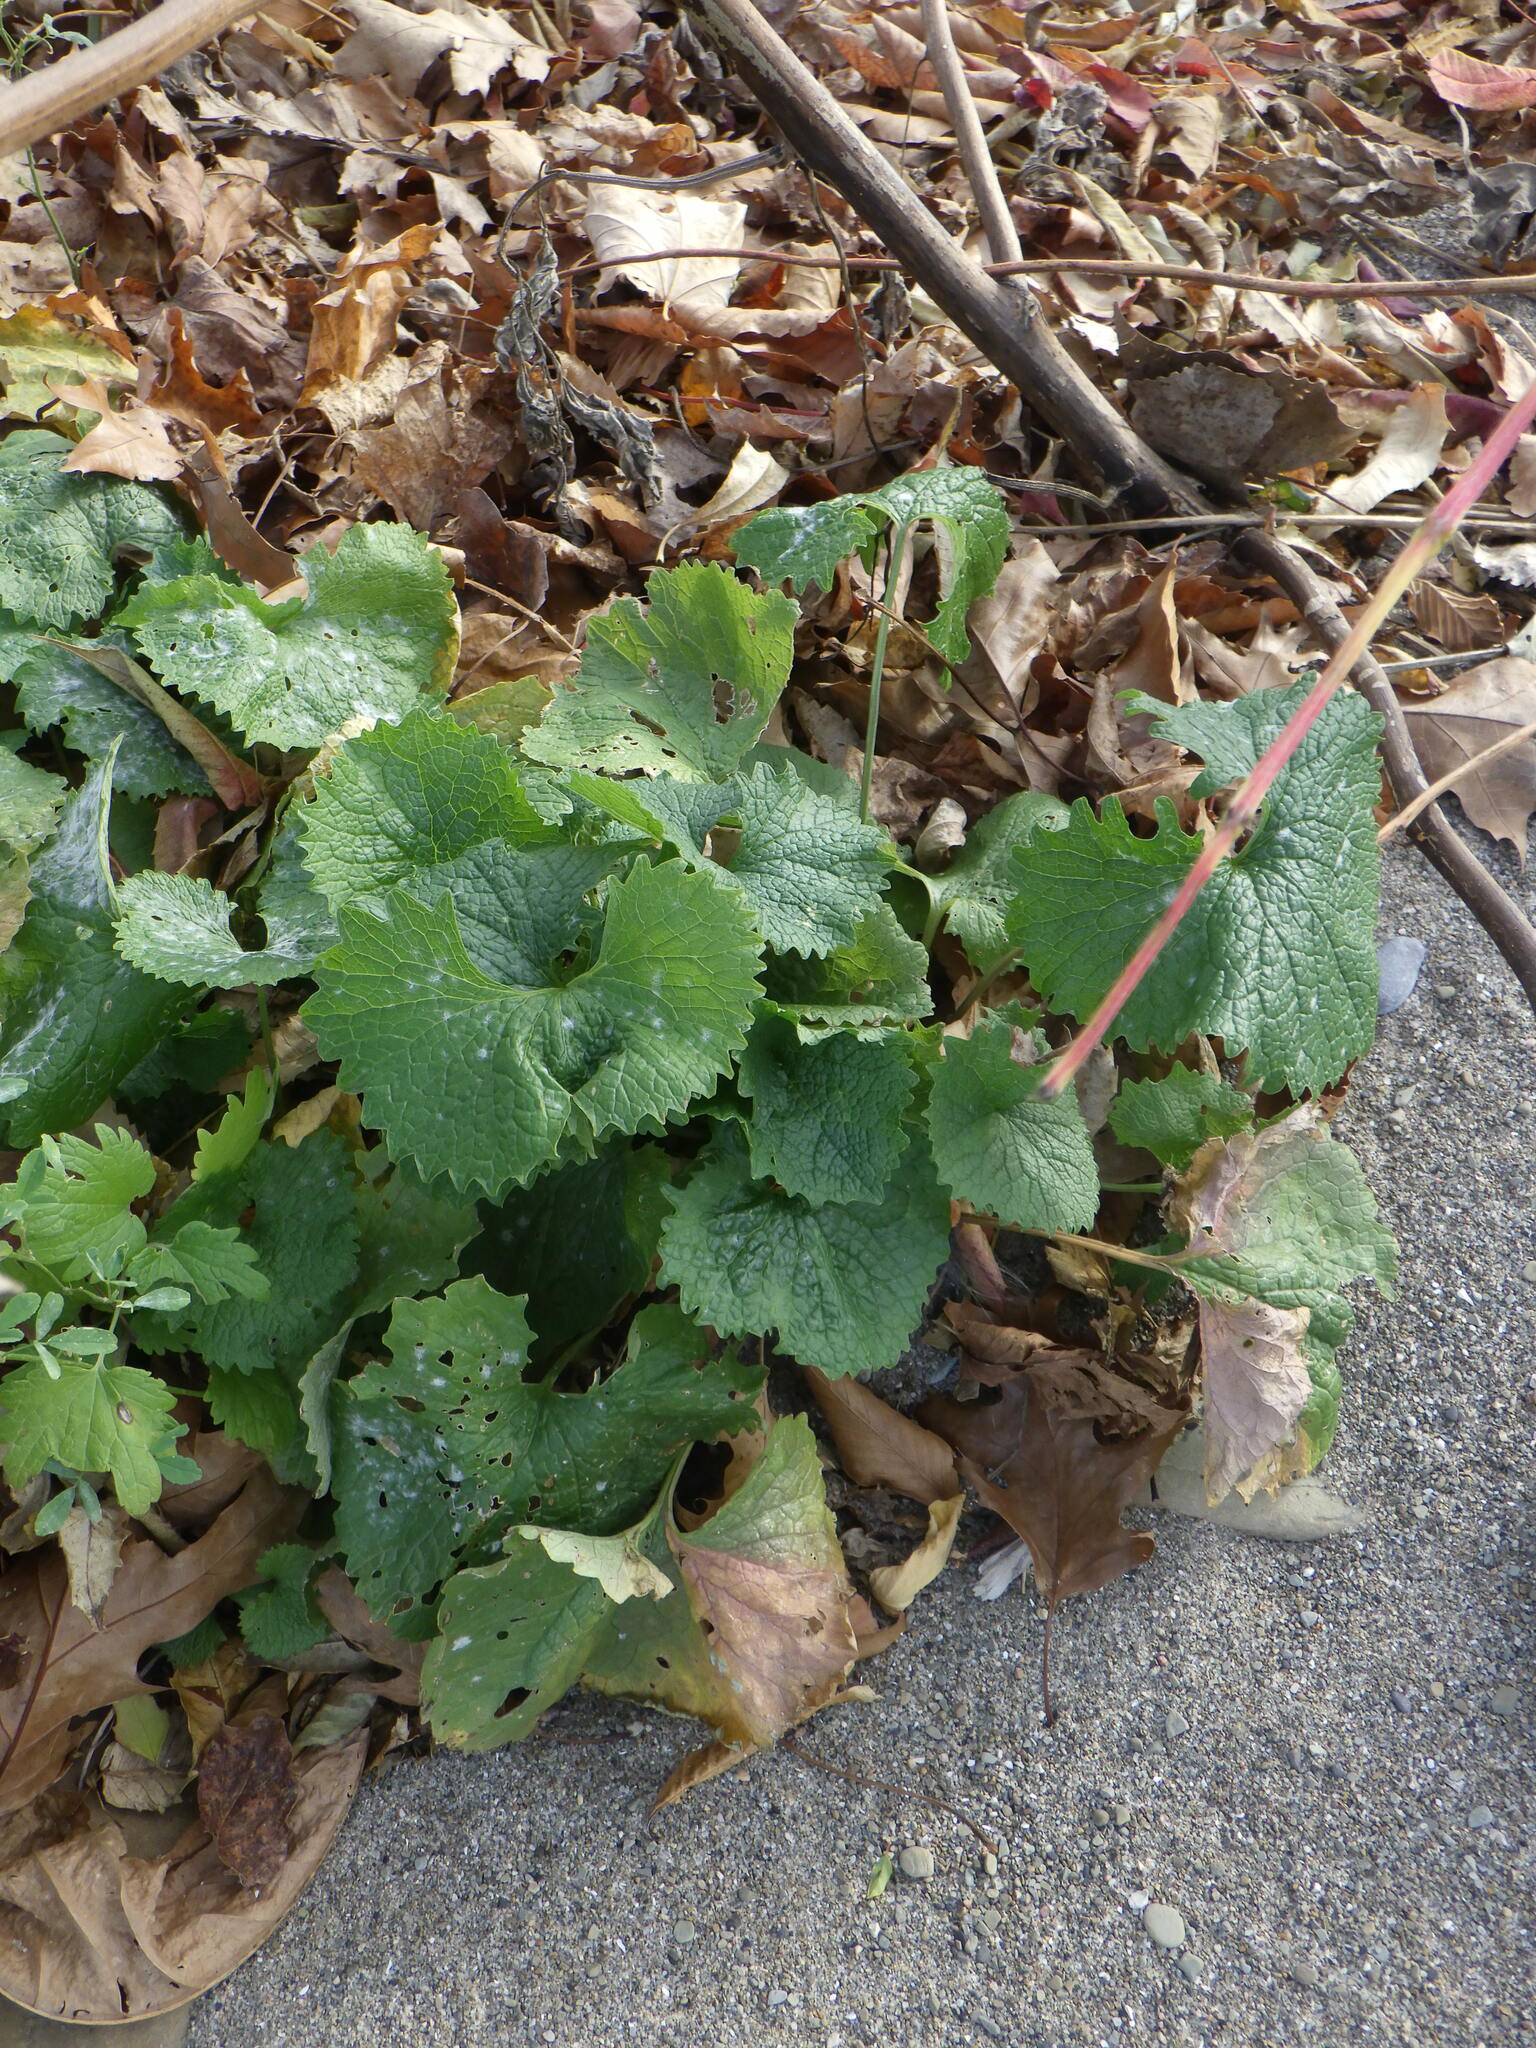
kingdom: Plantae
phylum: Tracheophyta
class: Magnoliopsida
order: Brassicales
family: Brassicaceae
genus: Alliaria
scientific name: Alliaria petiolata
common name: Garlic mustard
